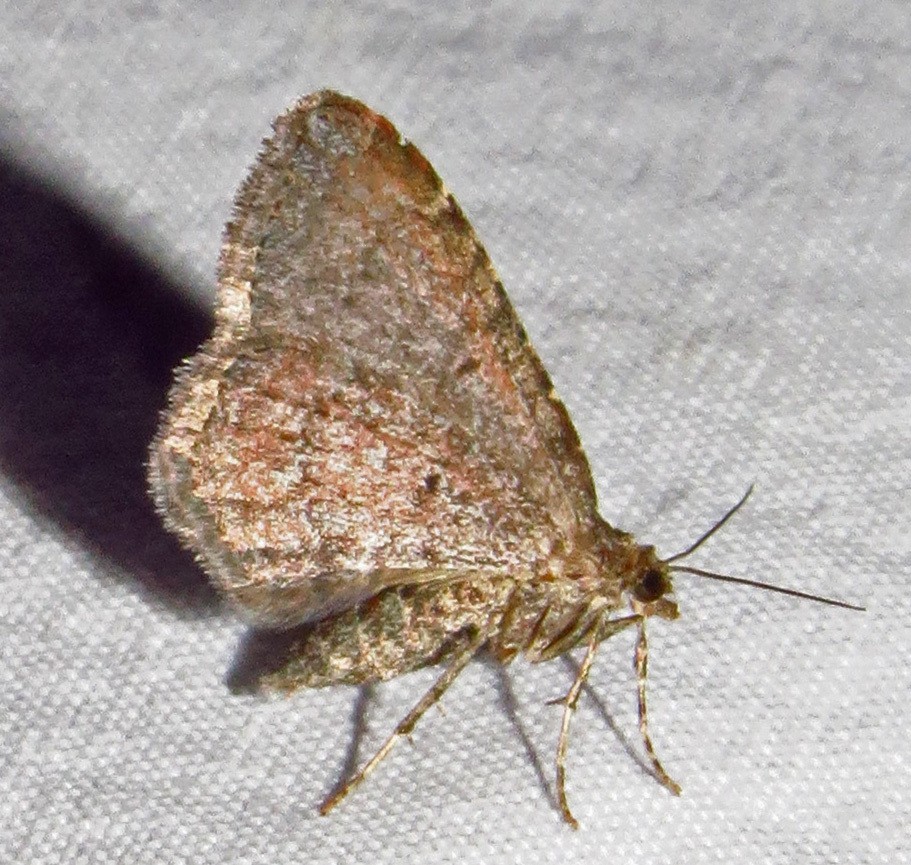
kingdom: Animalia
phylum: Arthropoda
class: Insecta
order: Lepidoptera
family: Geometridae
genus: Orthonama
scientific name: Orthonama obstipata
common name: The gem
